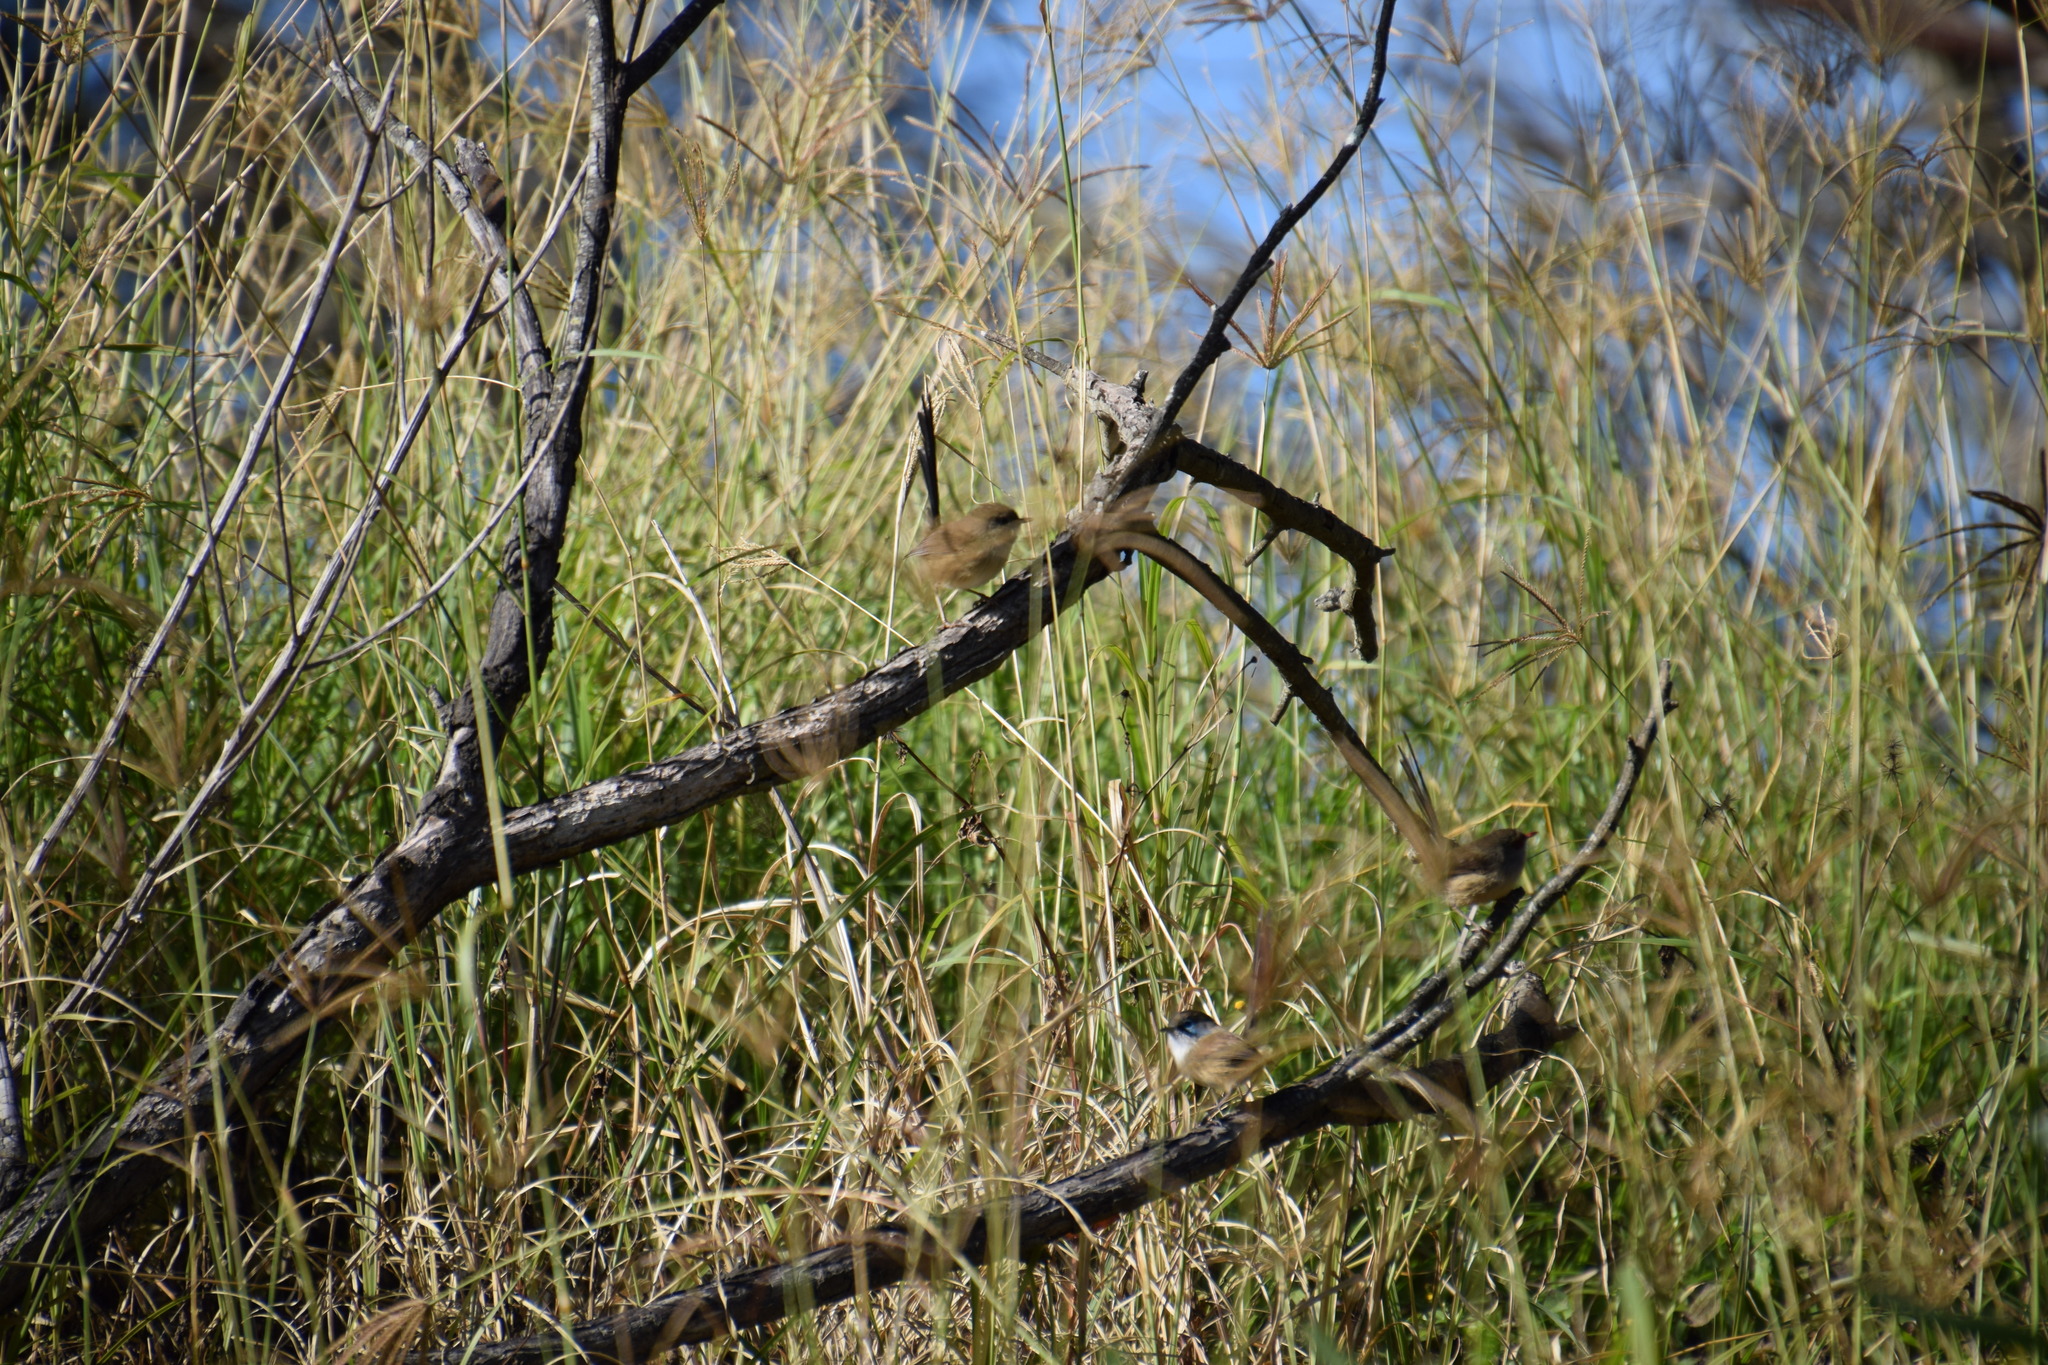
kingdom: Animalia
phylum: Chordata
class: Aves
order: Passeriformes
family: Maluridae
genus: Malurus
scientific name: Malurus cyaneus
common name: Superb fairywren
